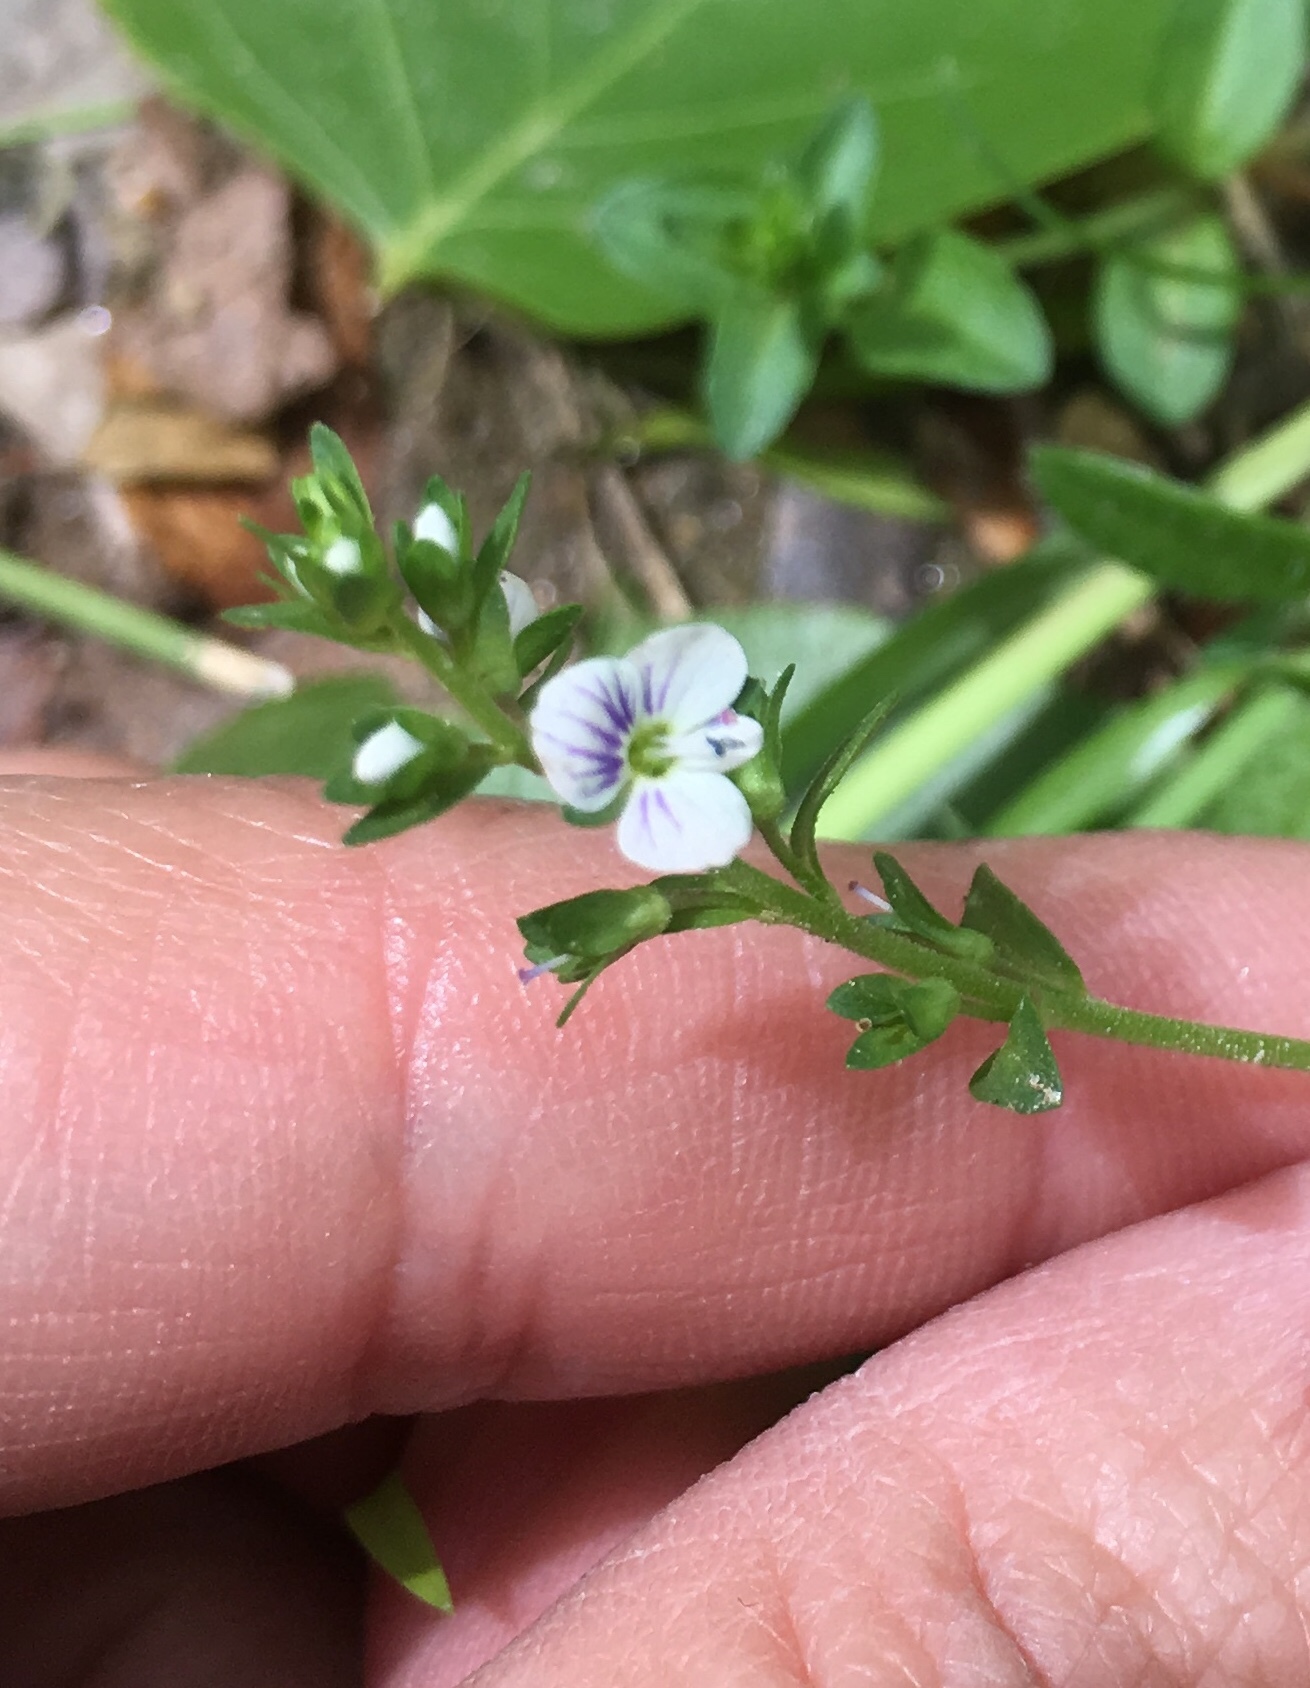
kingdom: Plantae
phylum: Tracheophyta
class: Magnoliopsida
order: Lamiales
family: Plantaginaceae
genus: Veronica
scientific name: Veronica serpyllifolia
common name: Thyme-leaved speedwell
